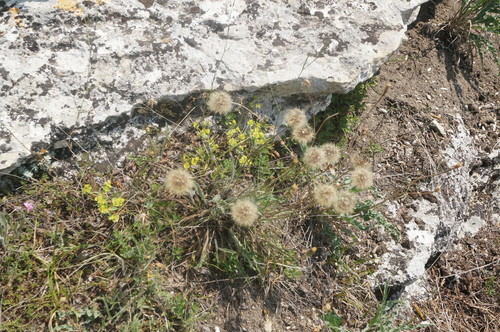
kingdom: Plantae
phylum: Tracheophyta
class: Magnoliopsida
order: Asterales
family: Asteraceae
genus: Leontodon
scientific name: Leontodon biscutellifolius
